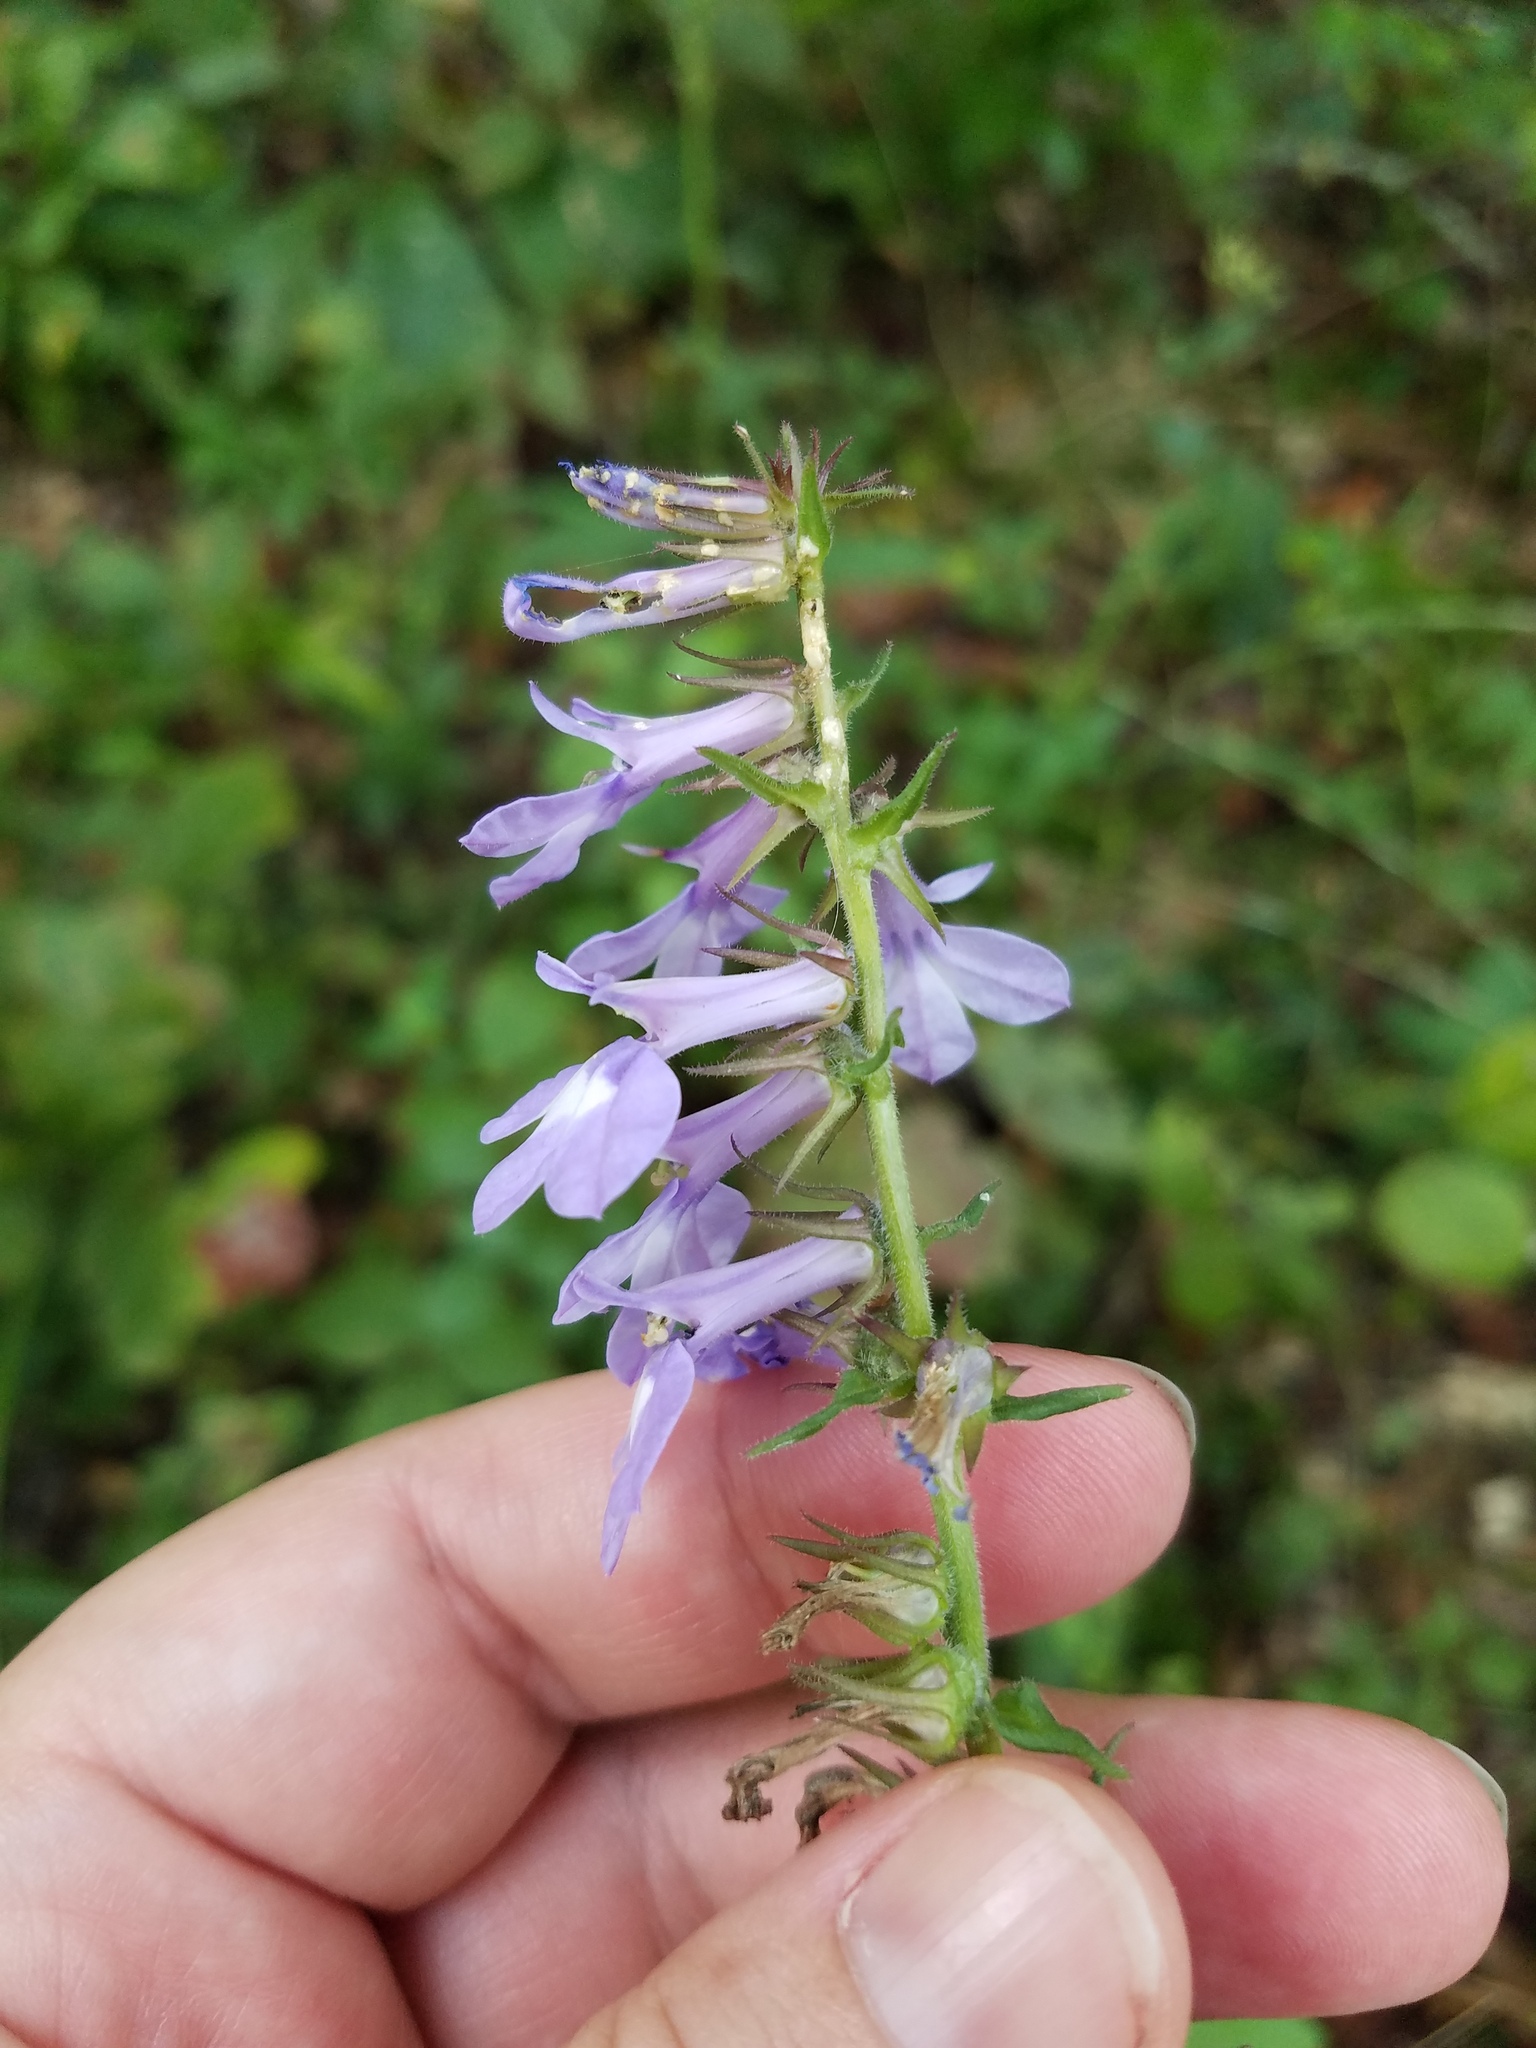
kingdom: Plantae
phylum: Tracheophyta
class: Magnoliopsida
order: Asterales
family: Campanulaceae
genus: Lobelia
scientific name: Lobelia puberula
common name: Purple dewdrop
